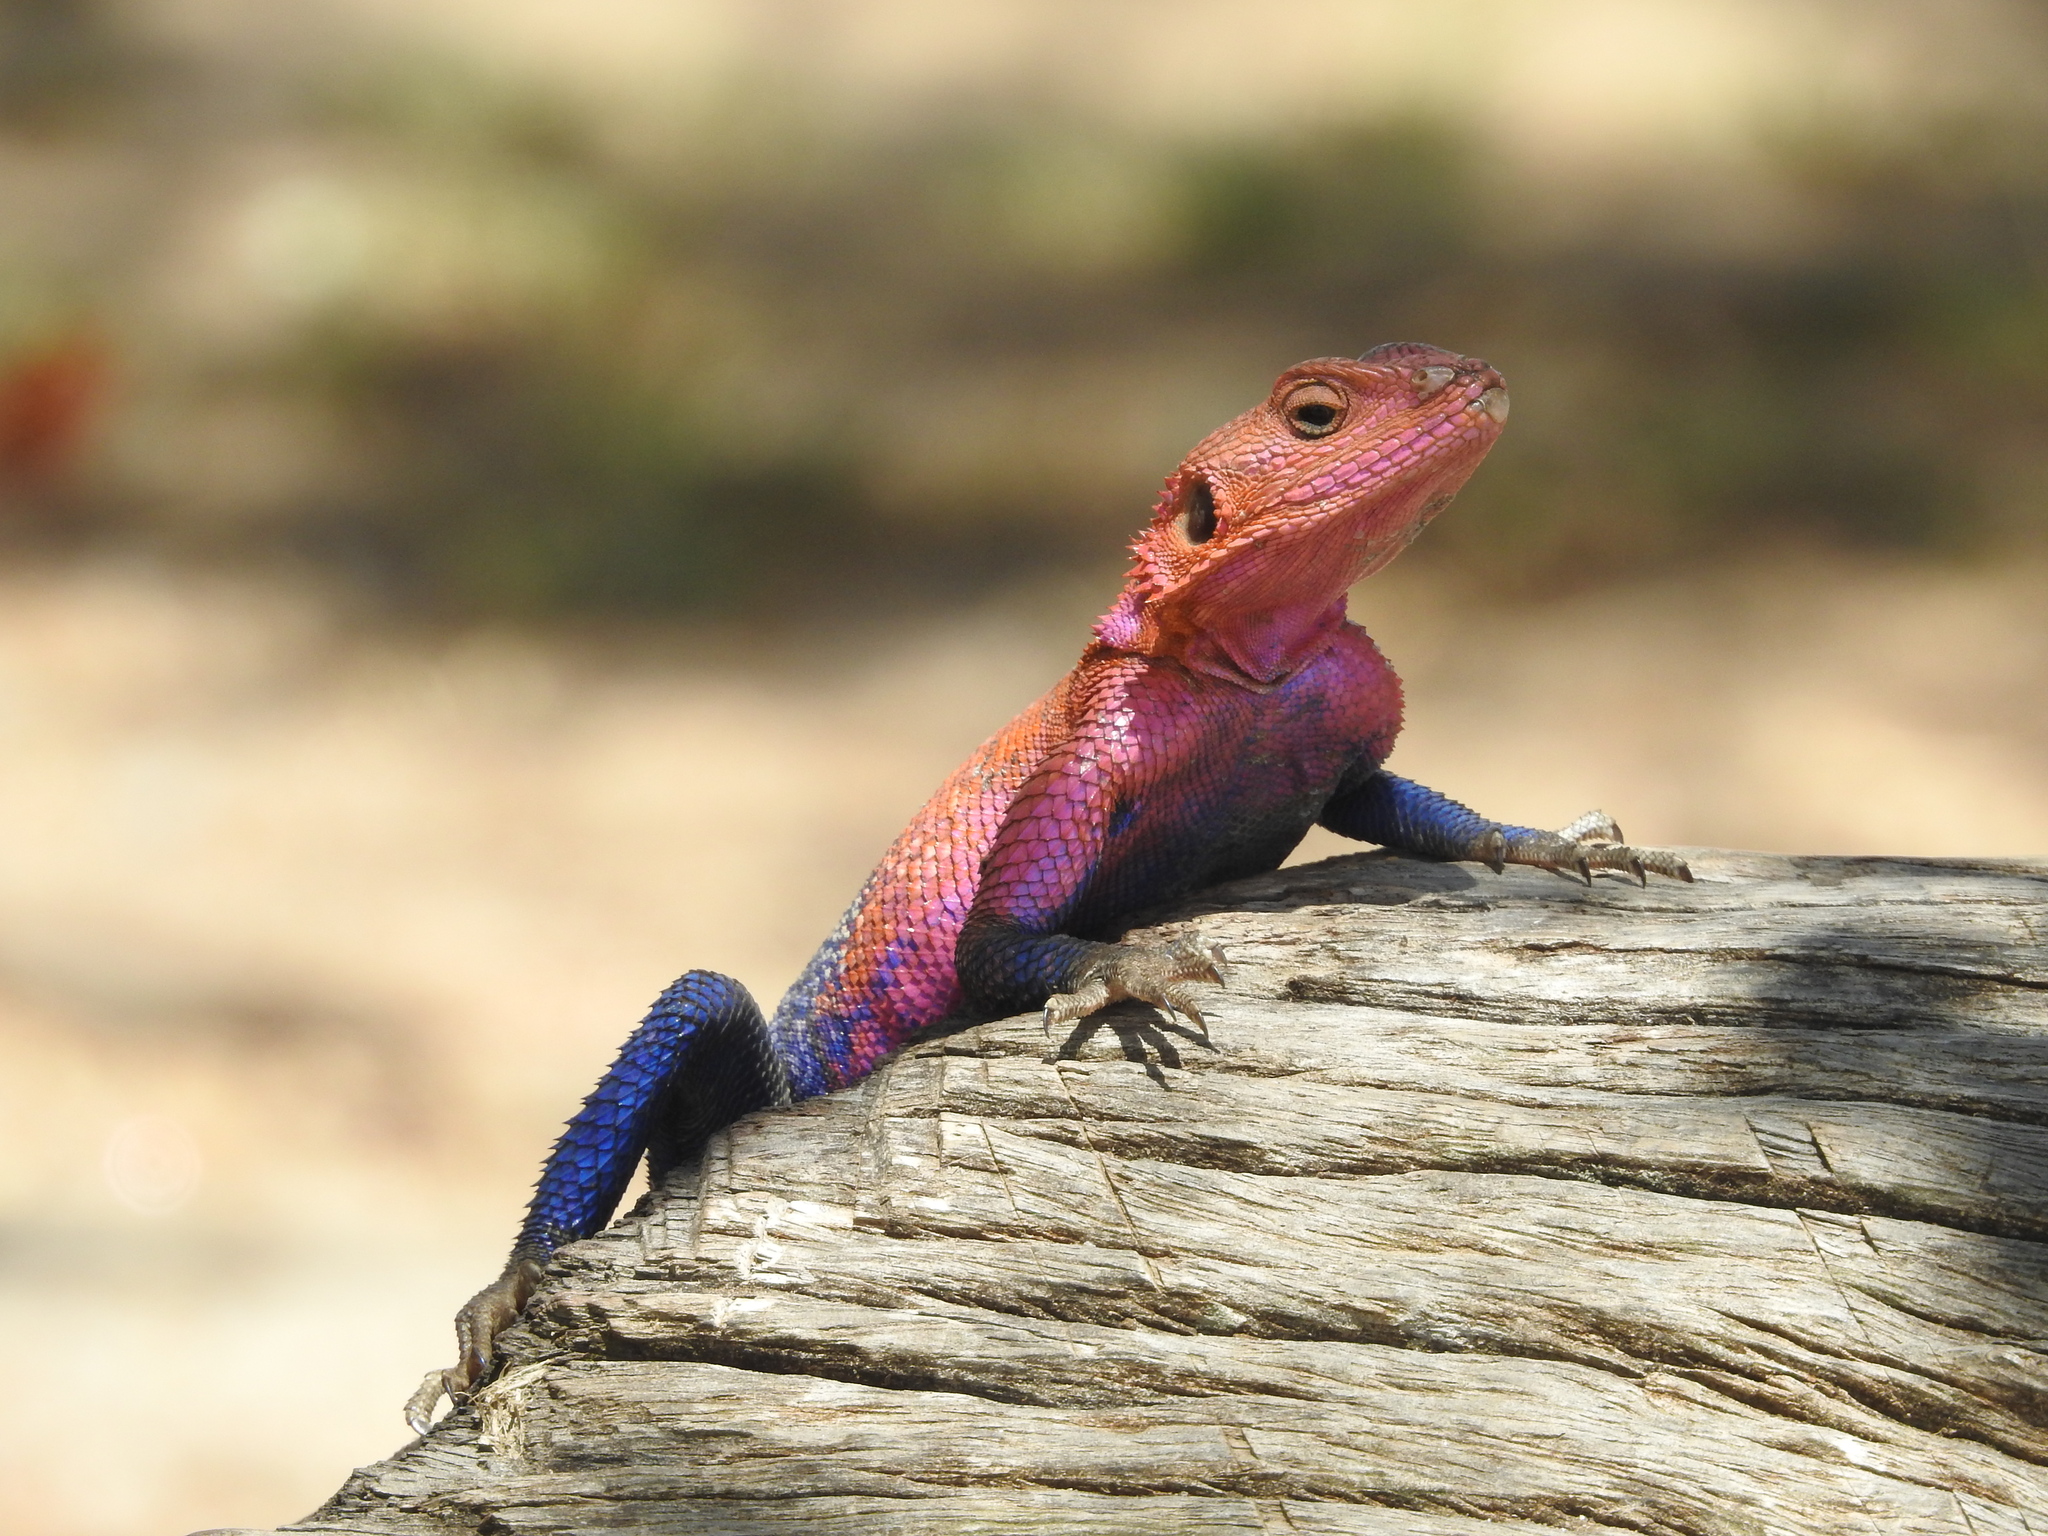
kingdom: Animalia
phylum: Chordata
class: Squamata
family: Agamidae
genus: Agama
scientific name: Agama mwanzae
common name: Mwanza flat-headed agama
